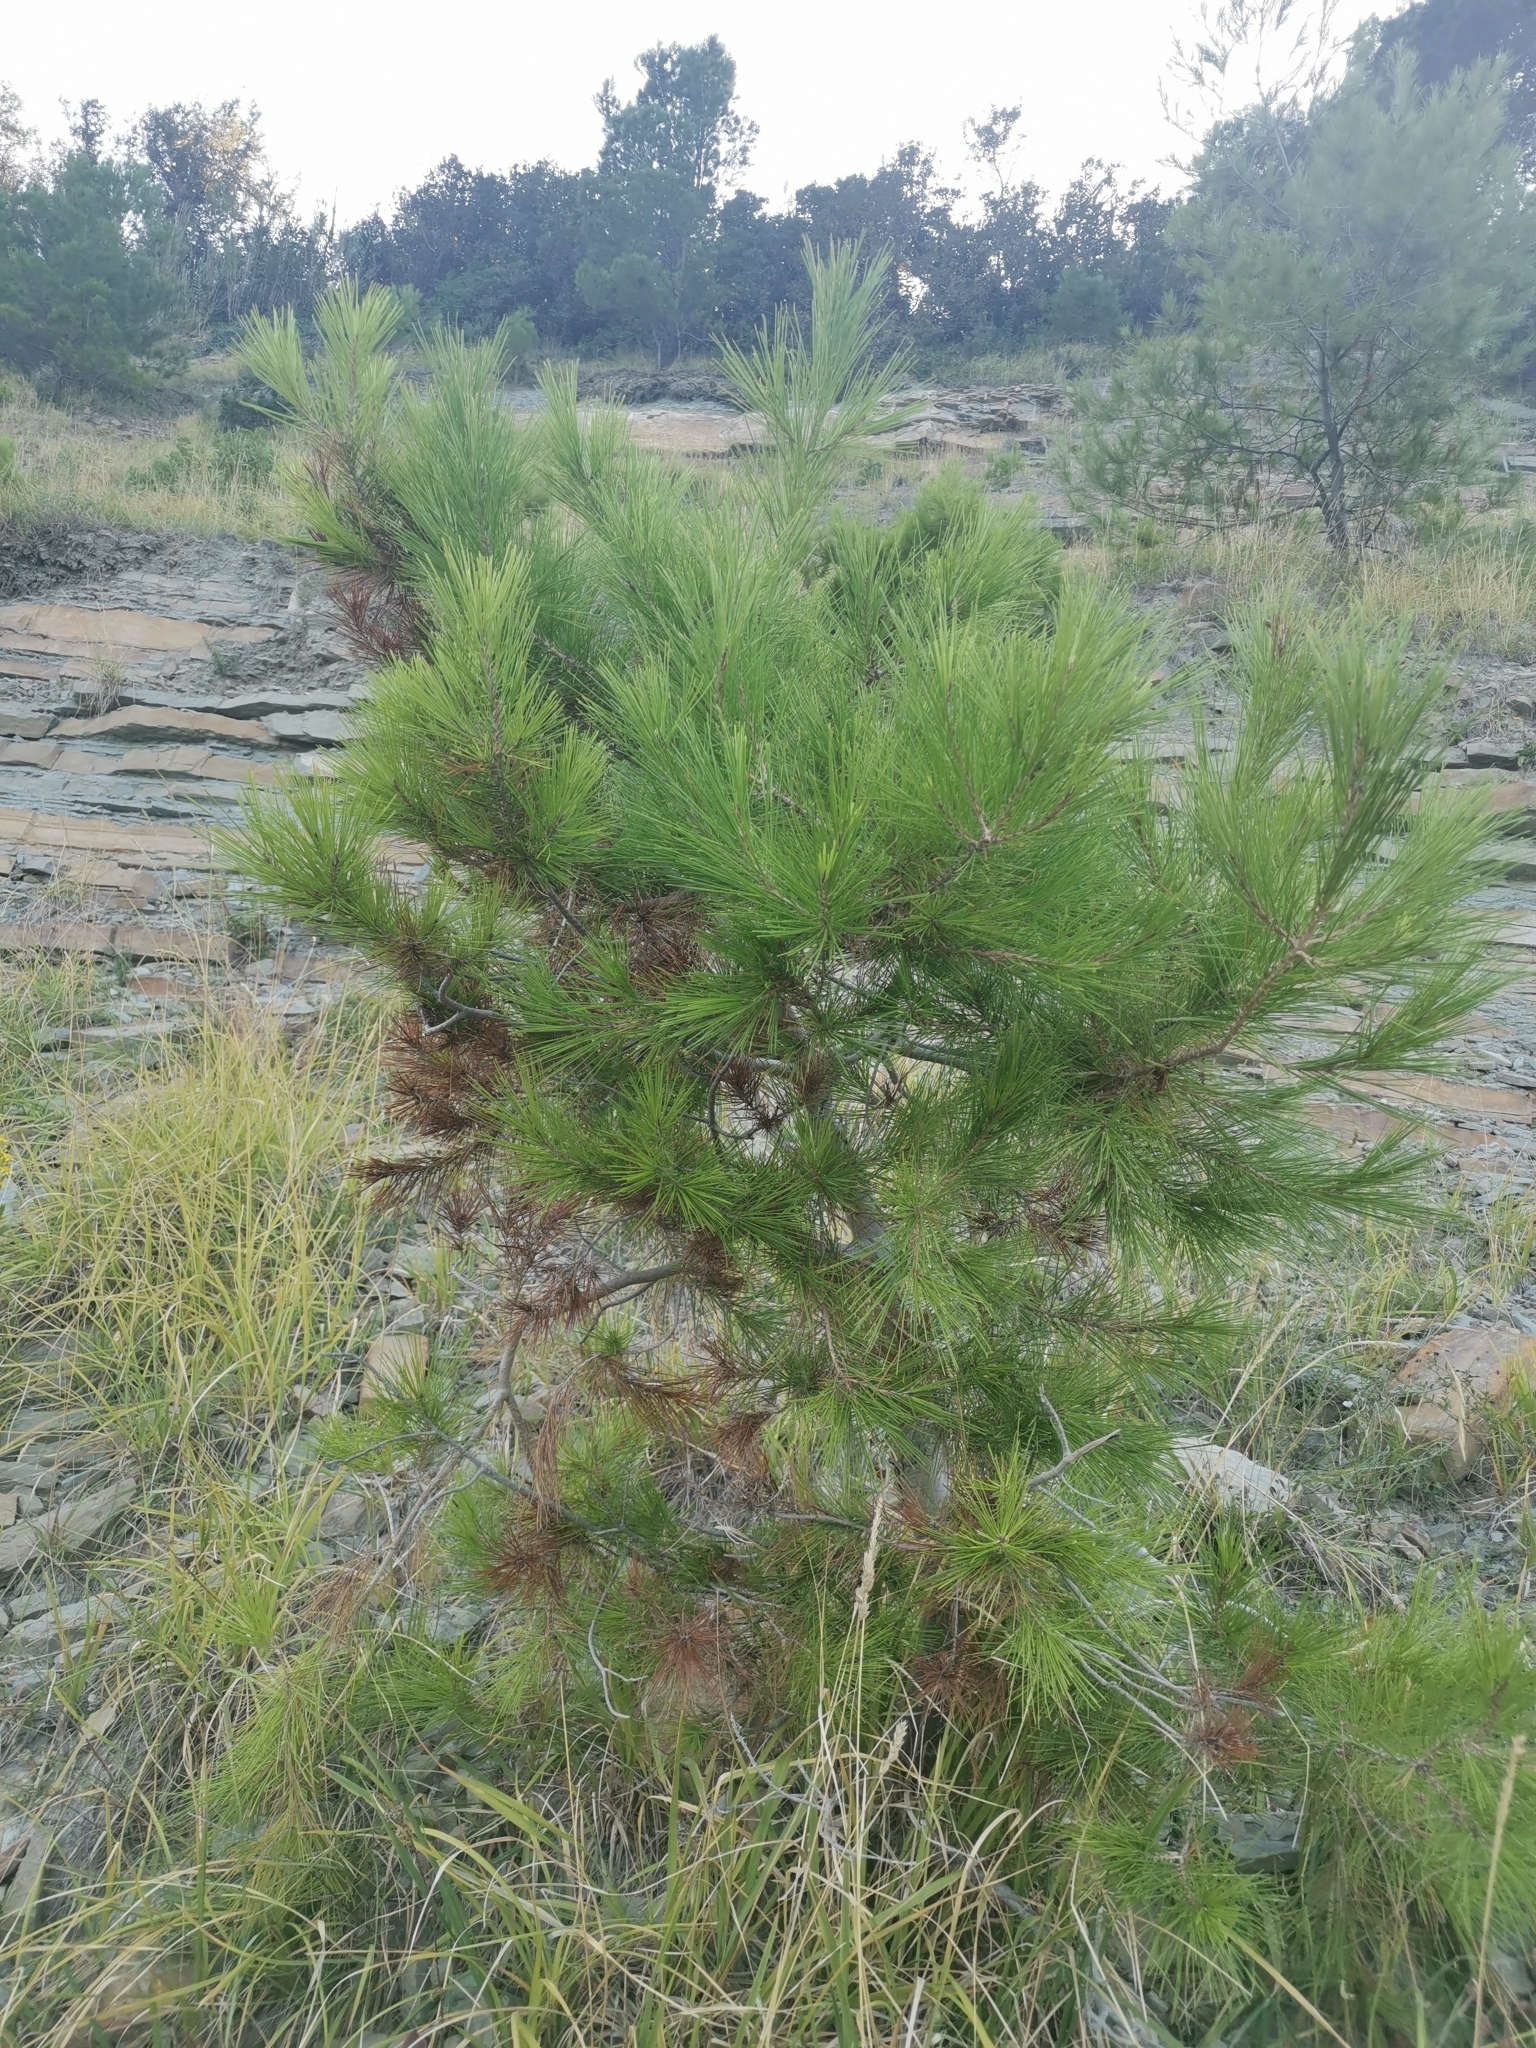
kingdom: Plantae
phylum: Tracheophyta
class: Pinopsida
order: Pinales
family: Pinaceae
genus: Pinus
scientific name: Pinus halepensis
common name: Aleppo pine
